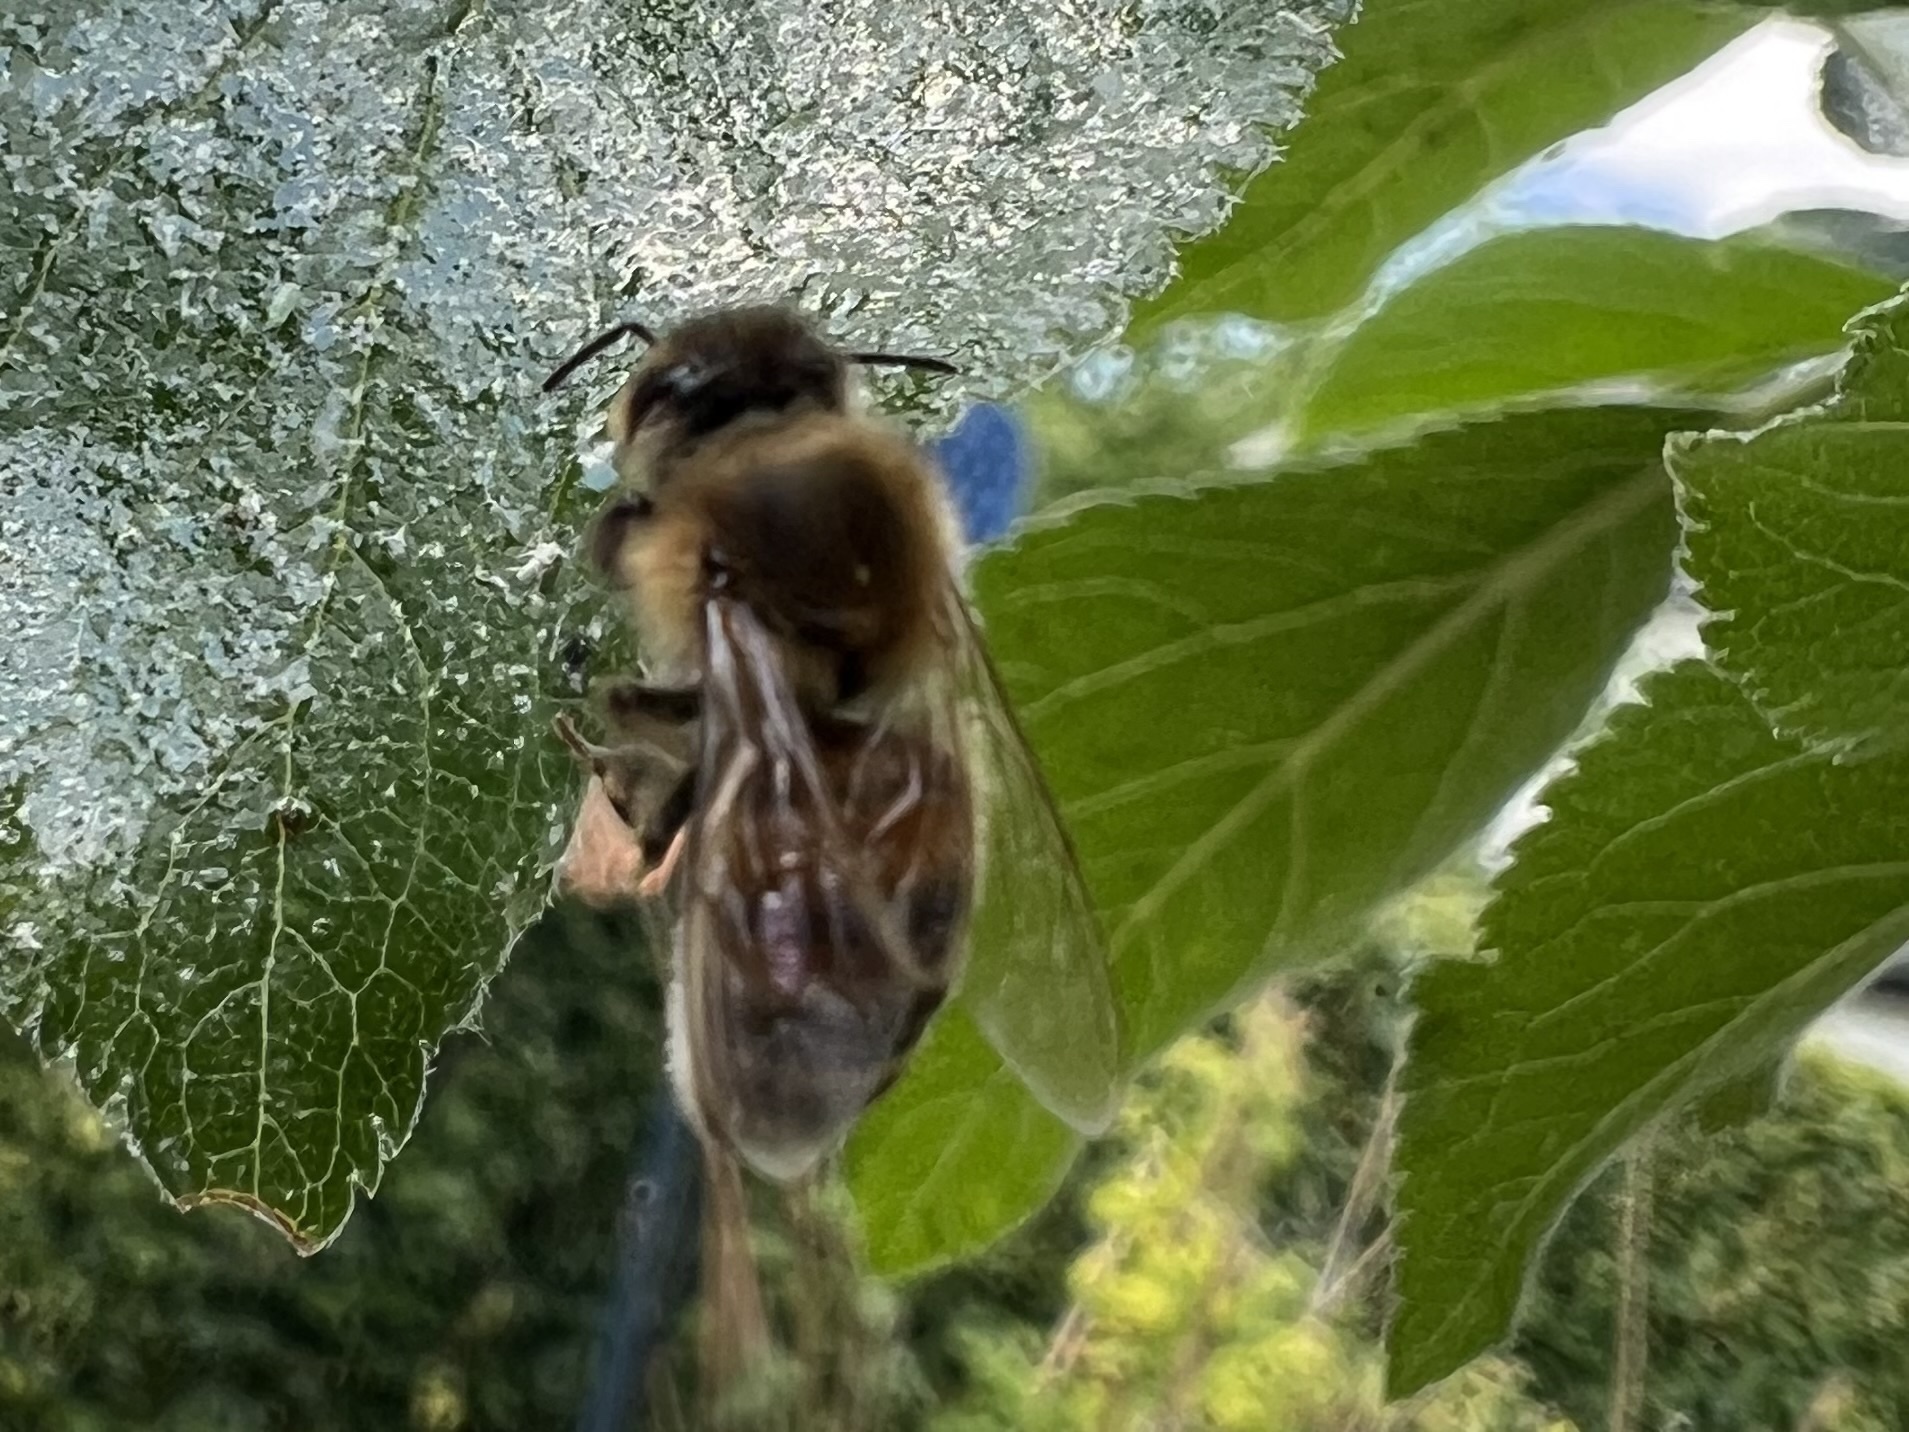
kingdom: Animalia
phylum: Arthropoda
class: Insecta
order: Hymenoptera
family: Apidae
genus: Apis
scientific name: Apis mellifera
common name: Honey bee
